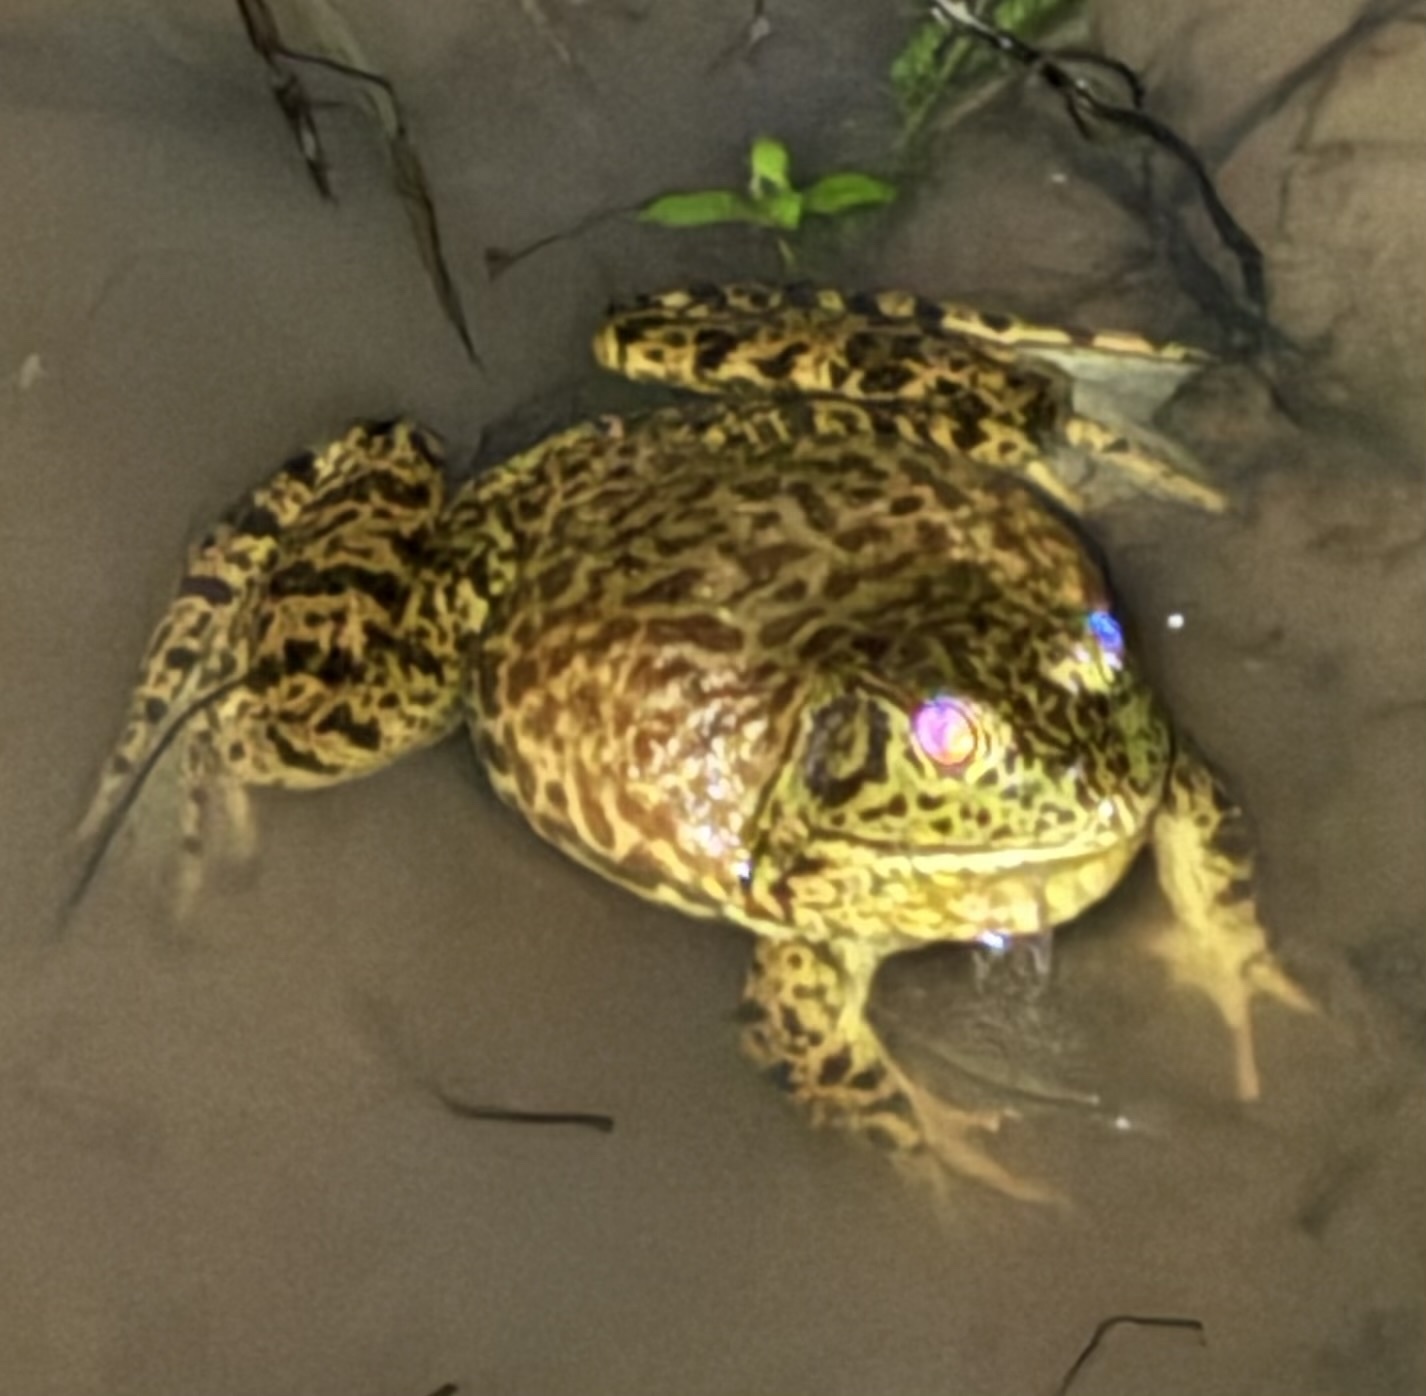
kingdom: Animalia
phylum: Chordata
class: Amphibia
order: Anura
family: Ranidae
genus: Lithobates
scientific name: Lithobates catesbeianus
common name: American bullfrog
